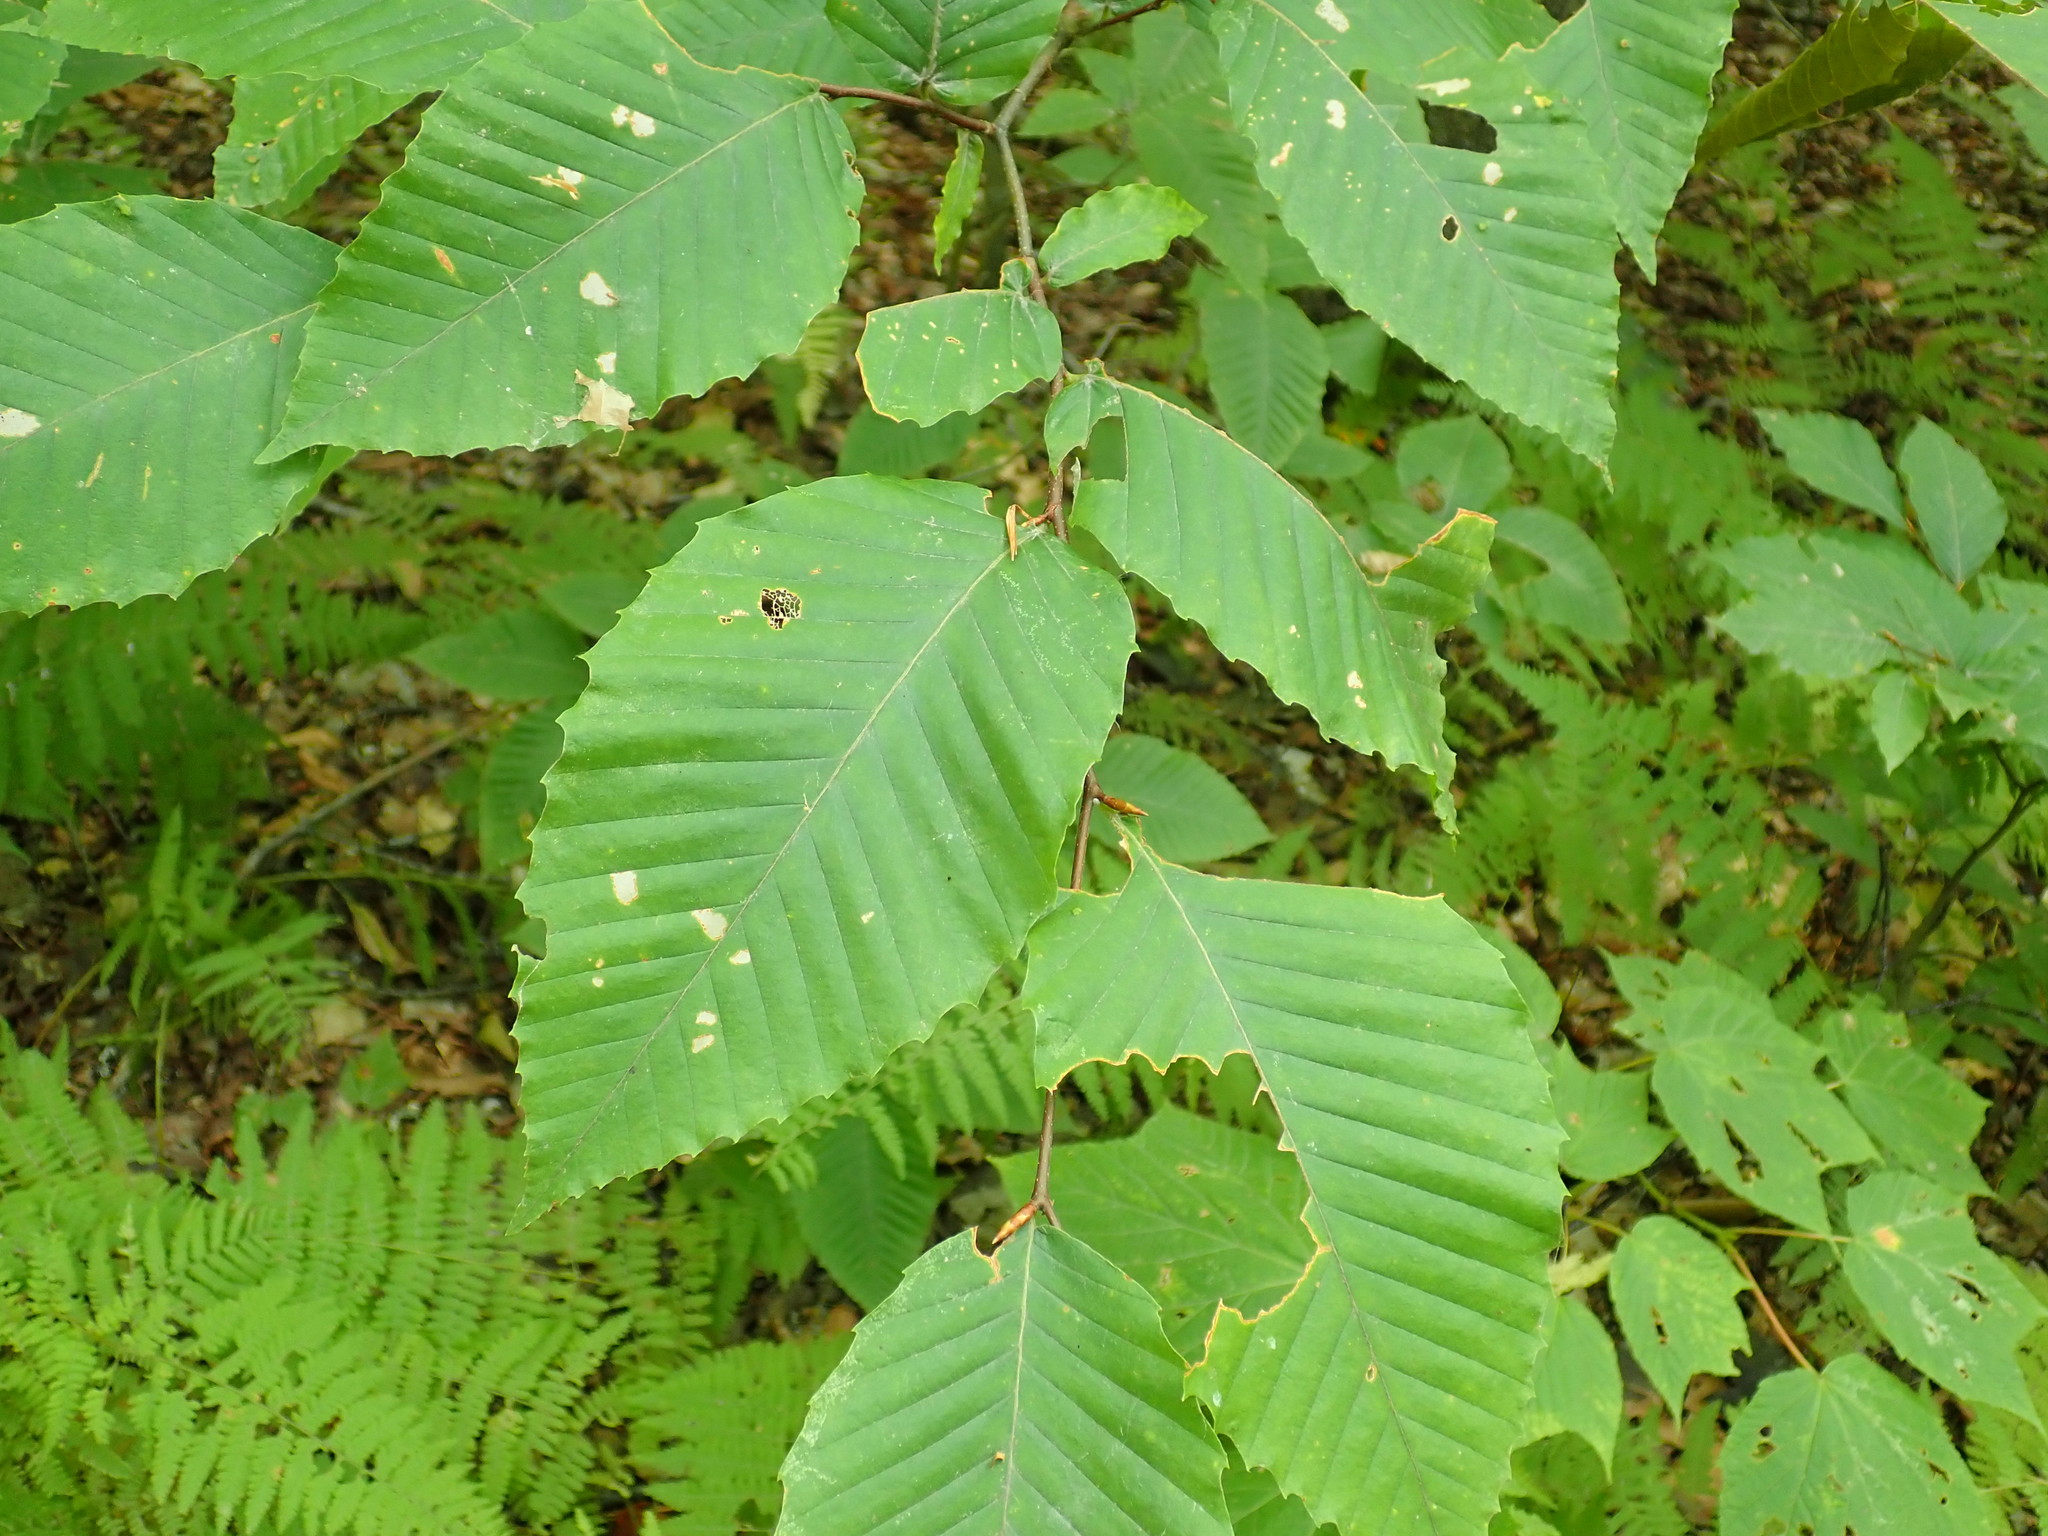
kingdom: Plantae
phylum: Tracheophyta
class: Magnoliopsida
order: Fagales
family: Fagaceae
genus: Fagus
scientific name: Fagus grandifolia
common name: American beech
